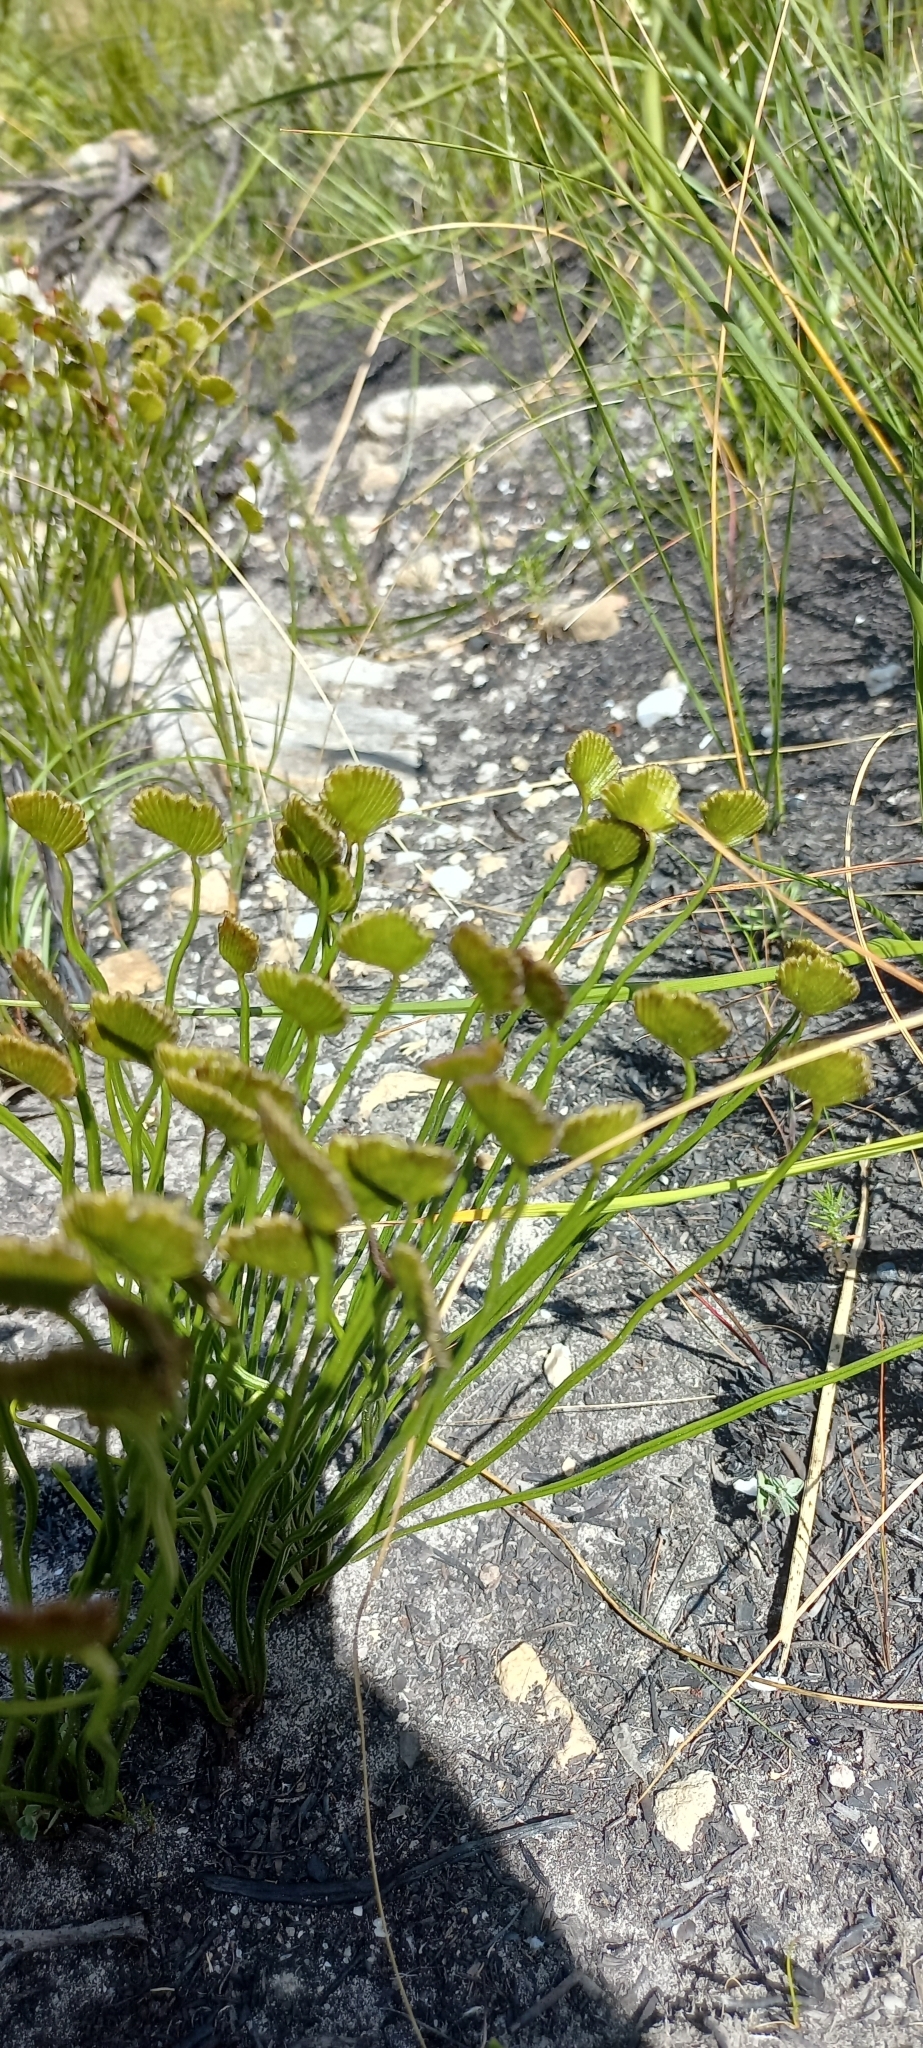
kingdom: Plantae
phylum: Tracheophyta
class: Polypodiopsida
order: Schizaeales
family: Schizaeaceae
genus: Schizaea
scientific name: Schizaea pectinata
